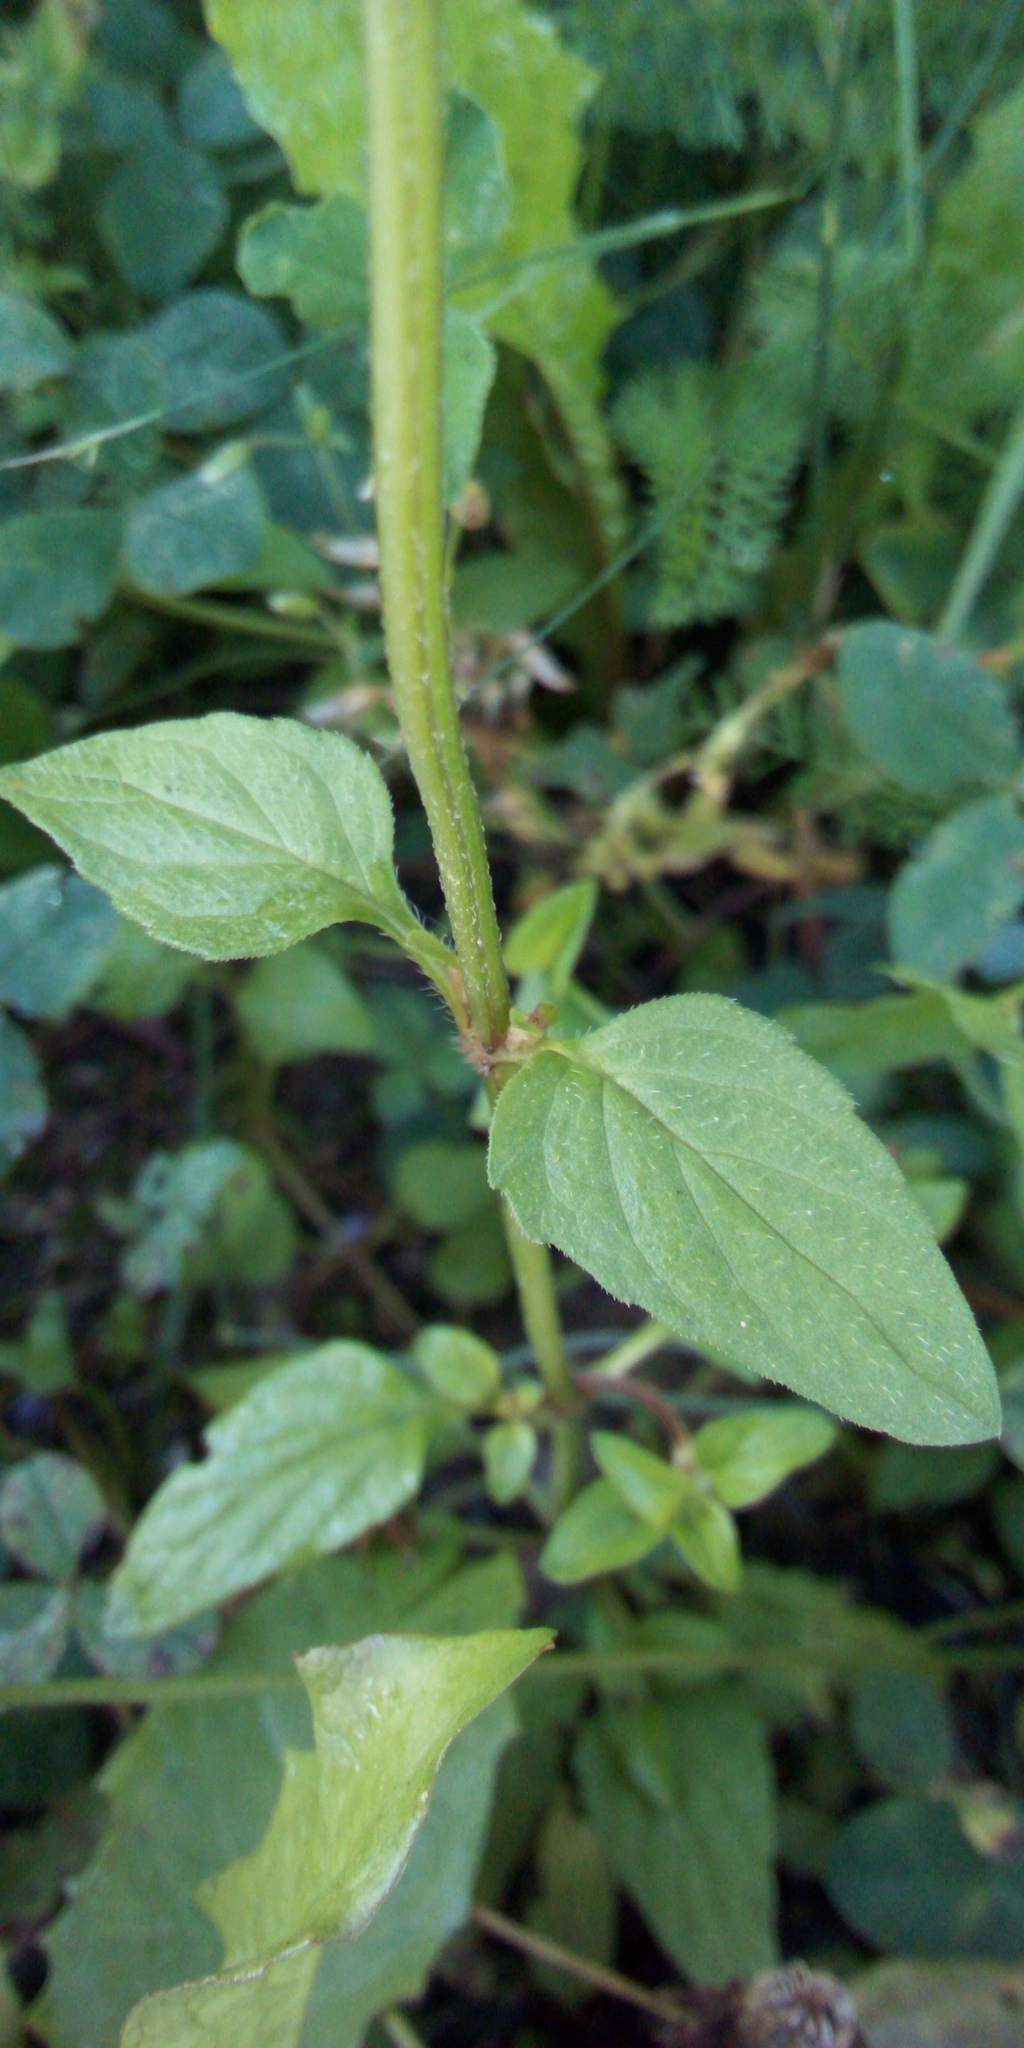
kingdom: Plantae
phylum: Tracheophyta
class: Magnoliopsida
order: Lamiales
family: Lamiaceae
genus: Prunella
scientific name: Prunella vulgaris
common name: Heal-all
